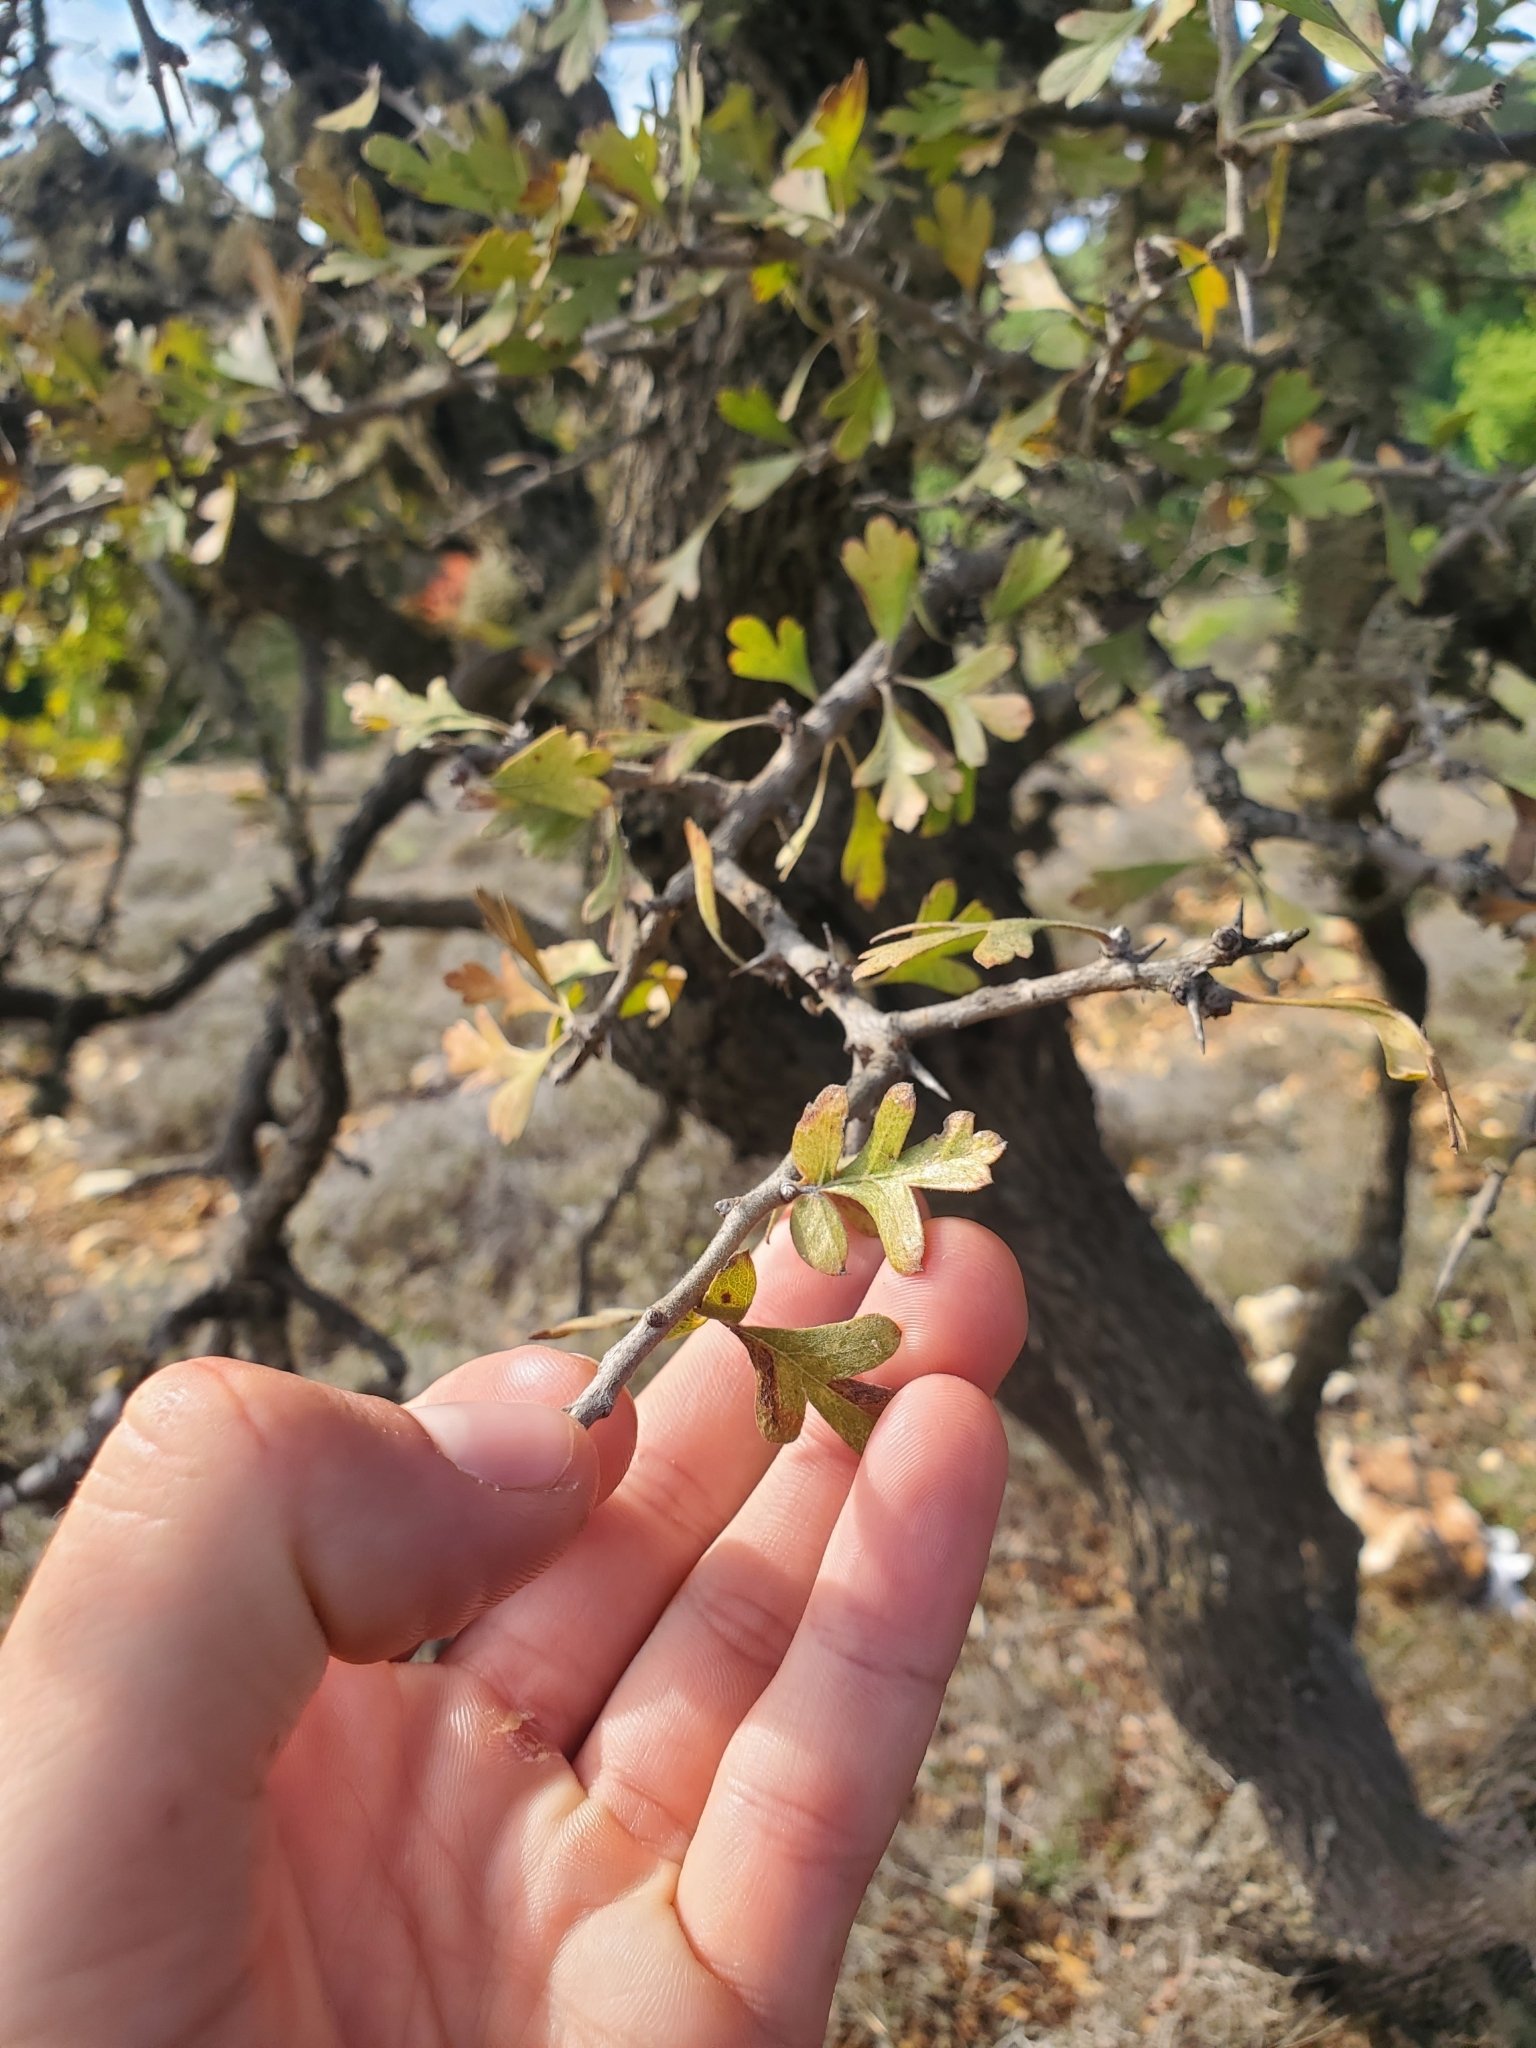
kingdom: Plantae
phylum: Tracheophyta
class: Magnoliopsida
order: Rosales
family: Rosaceae
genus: Crataegus
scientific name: Crataegus azarolus
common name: Azarole
